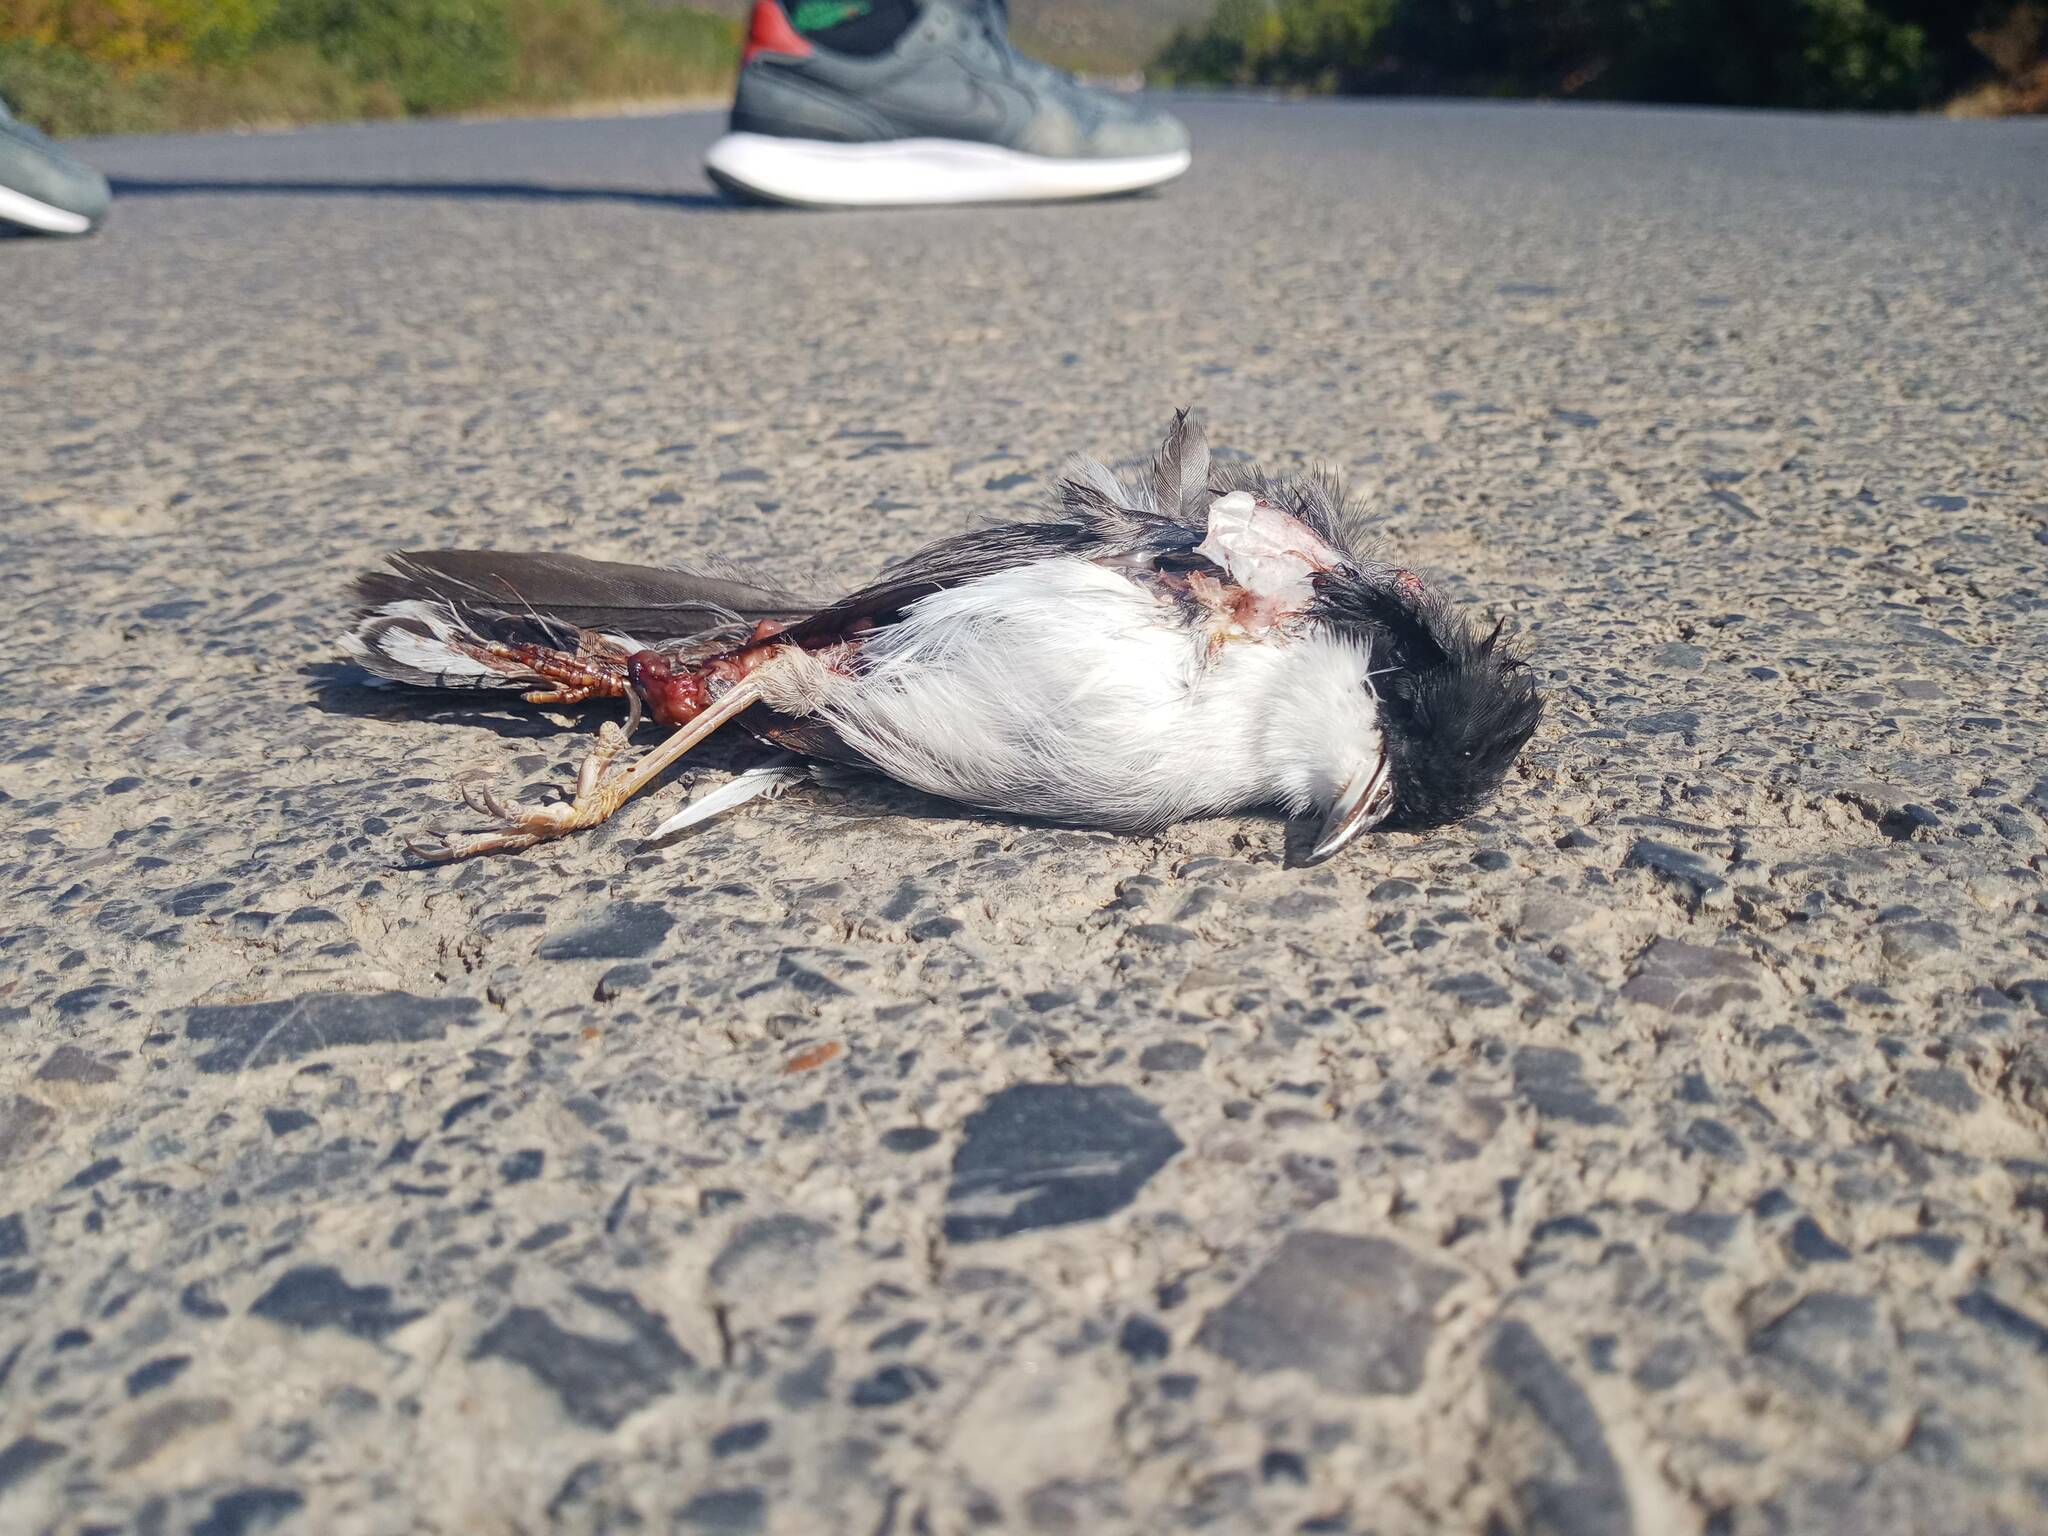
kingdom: Animalia
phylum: Chordata
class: Aves
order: Passeriformes
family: Sylviidae
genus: Curruca
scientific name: Curruca melanocephala
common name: Sardinian warbler
